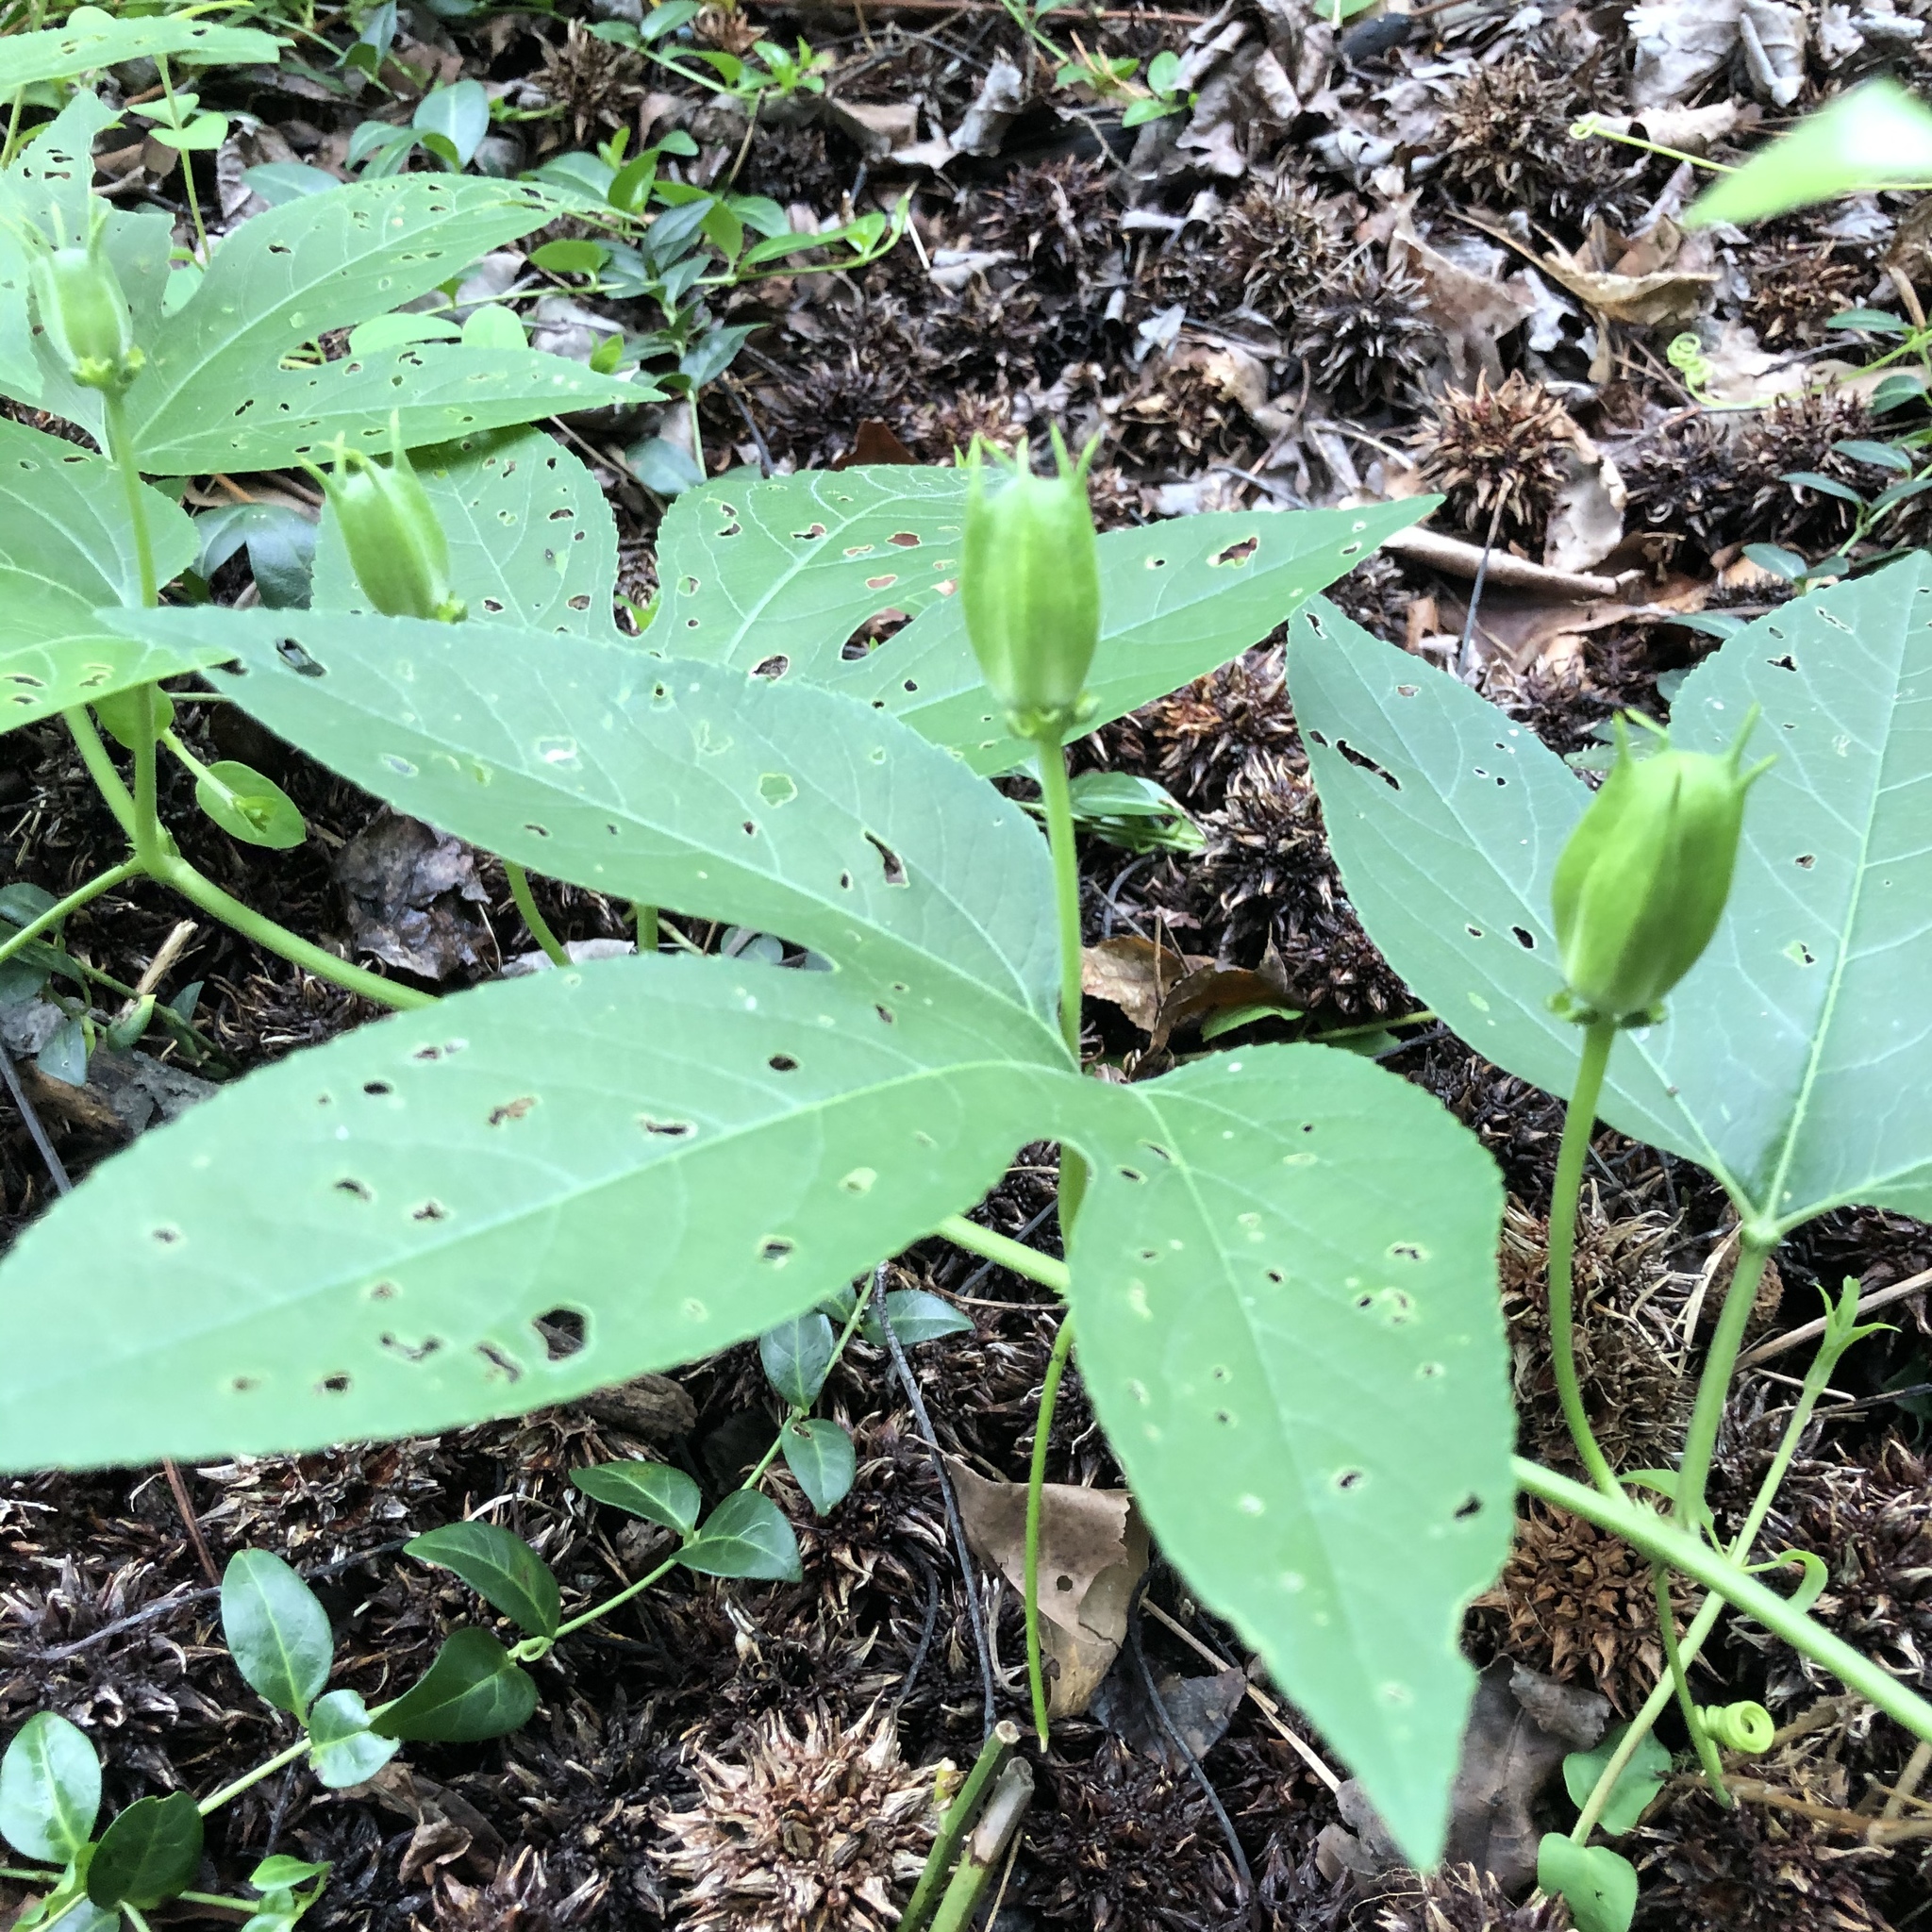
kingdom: Plantae
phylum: Tracheophyta
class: Magnoliopsida
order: Malpighiales
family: Passifloraceae
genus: Passiflora
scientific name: Passiflora incarnata
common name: Apricot-vine
